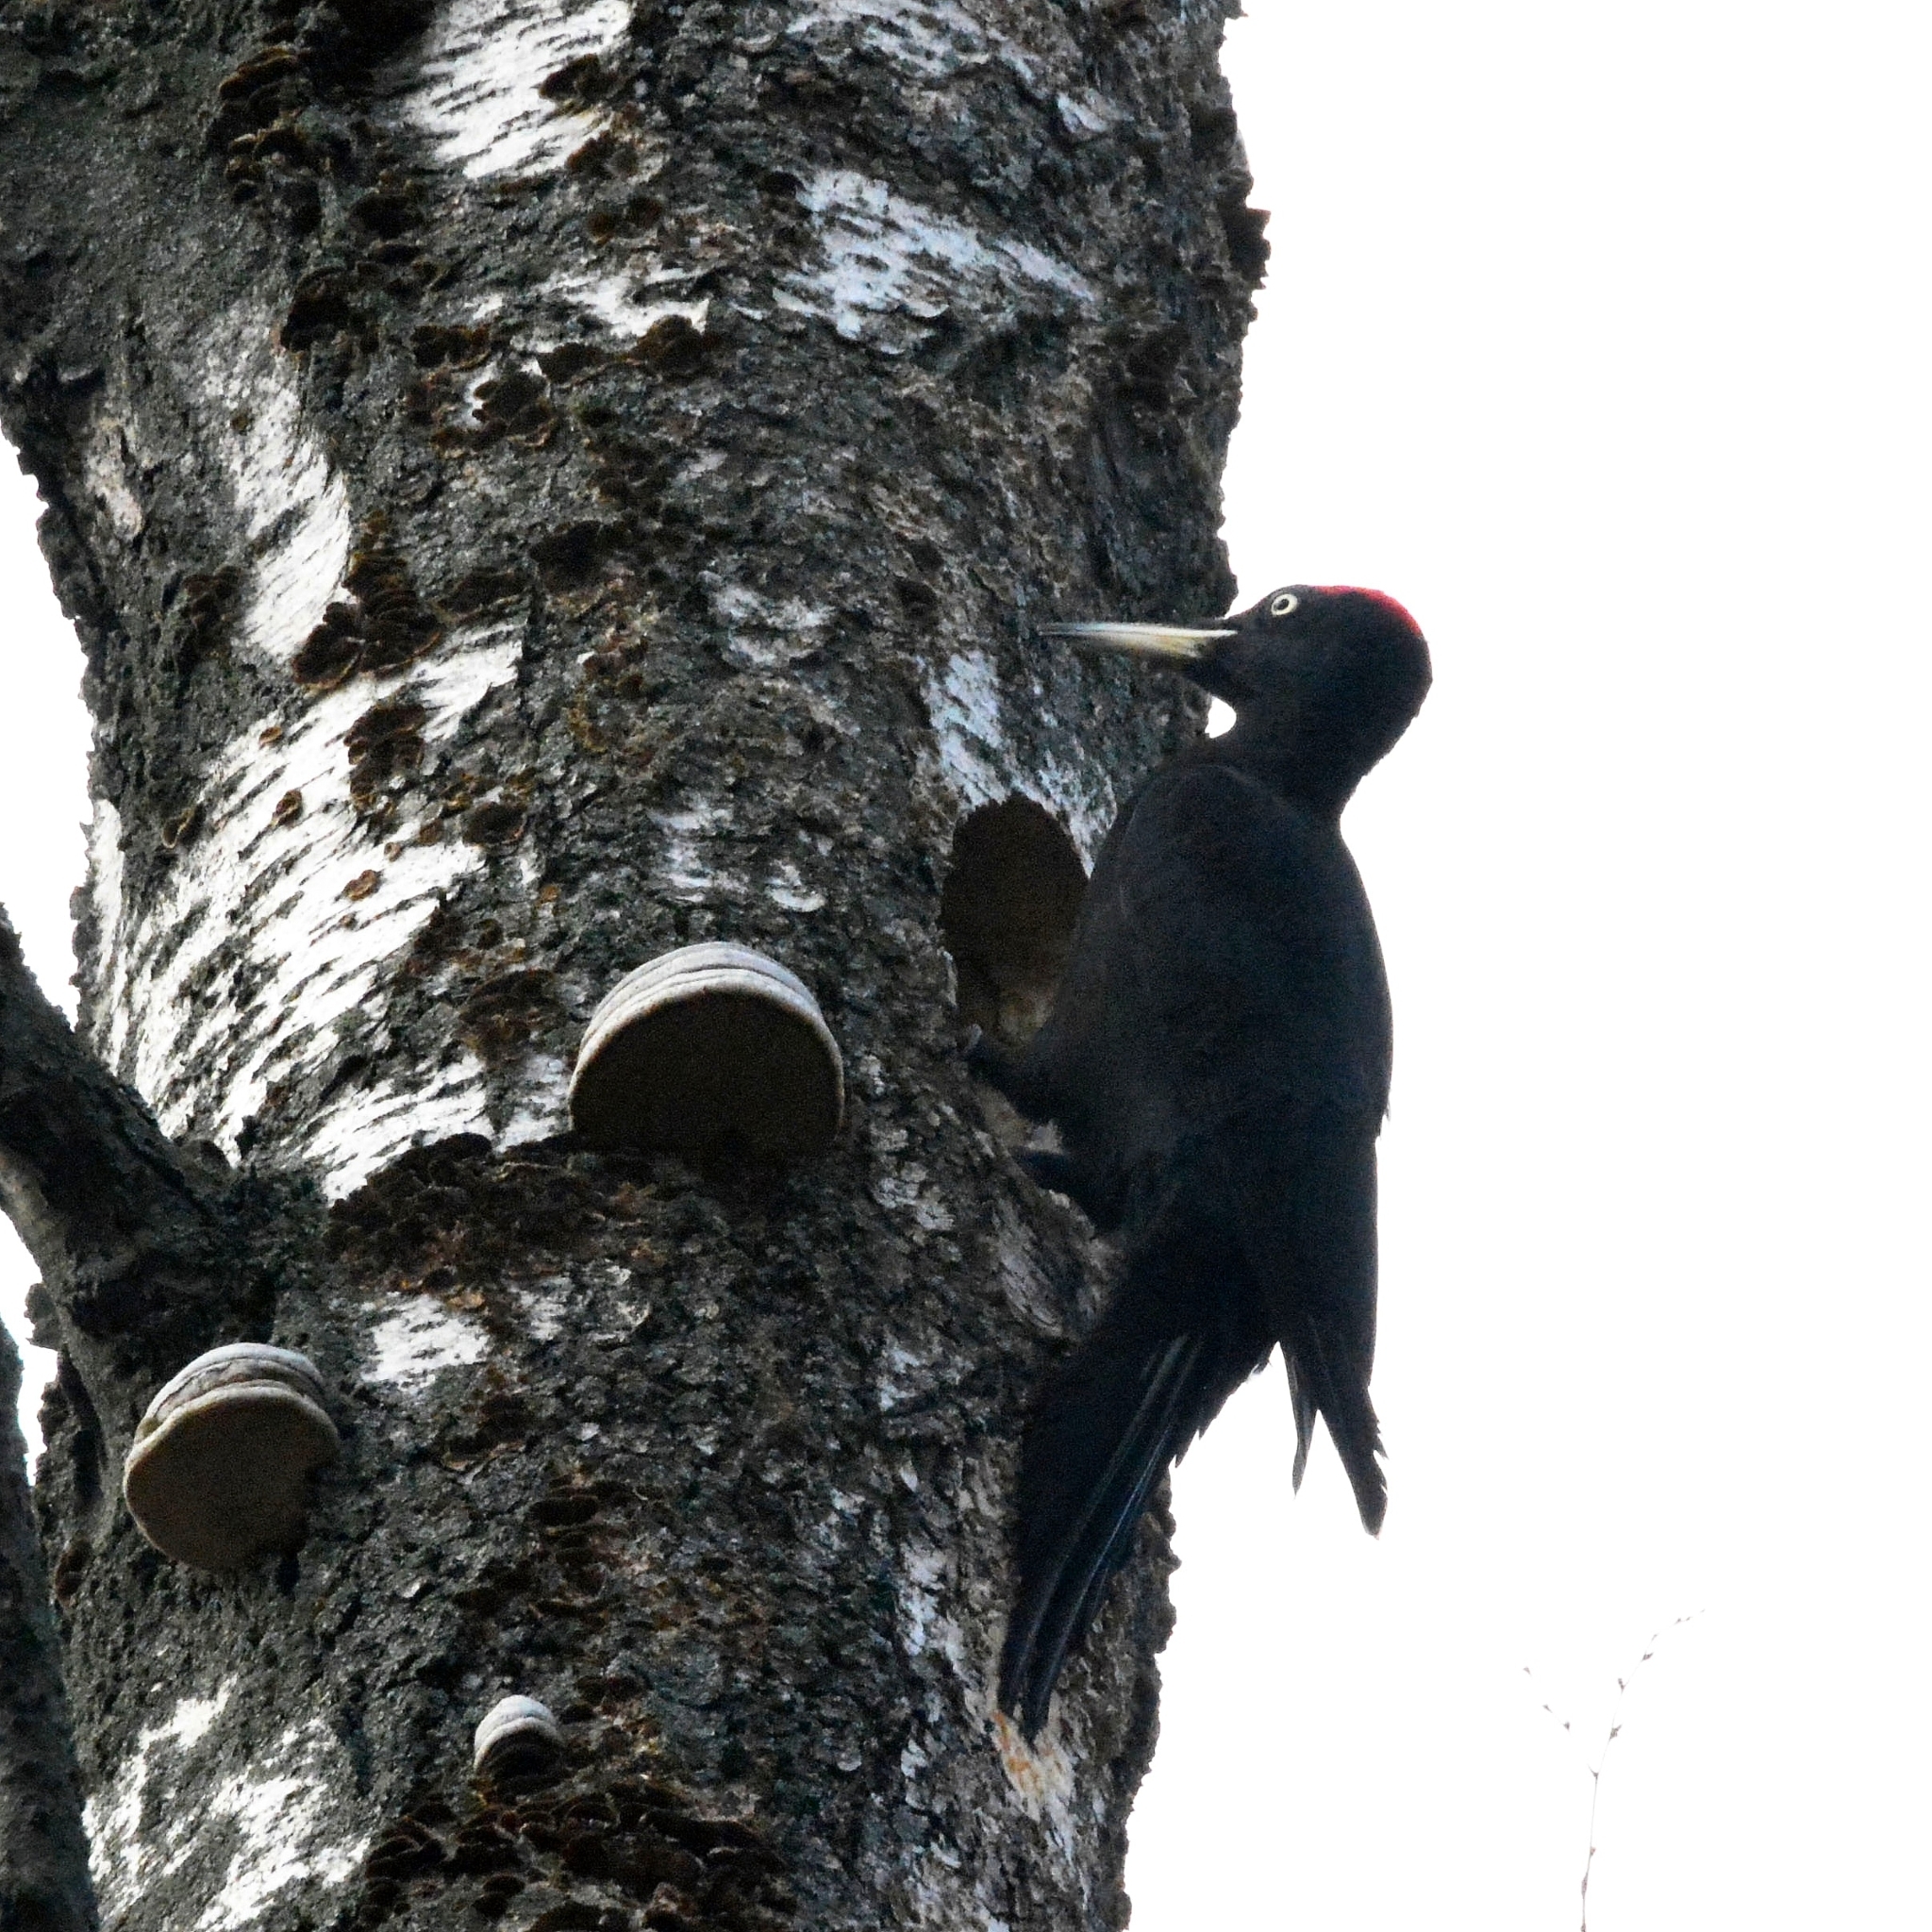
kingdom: Animalia
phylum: Chordata
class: Aves
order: Piciformes
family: Picidae
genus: Dryocopus
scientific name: Dryocopus martius
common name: Black woodpecker
